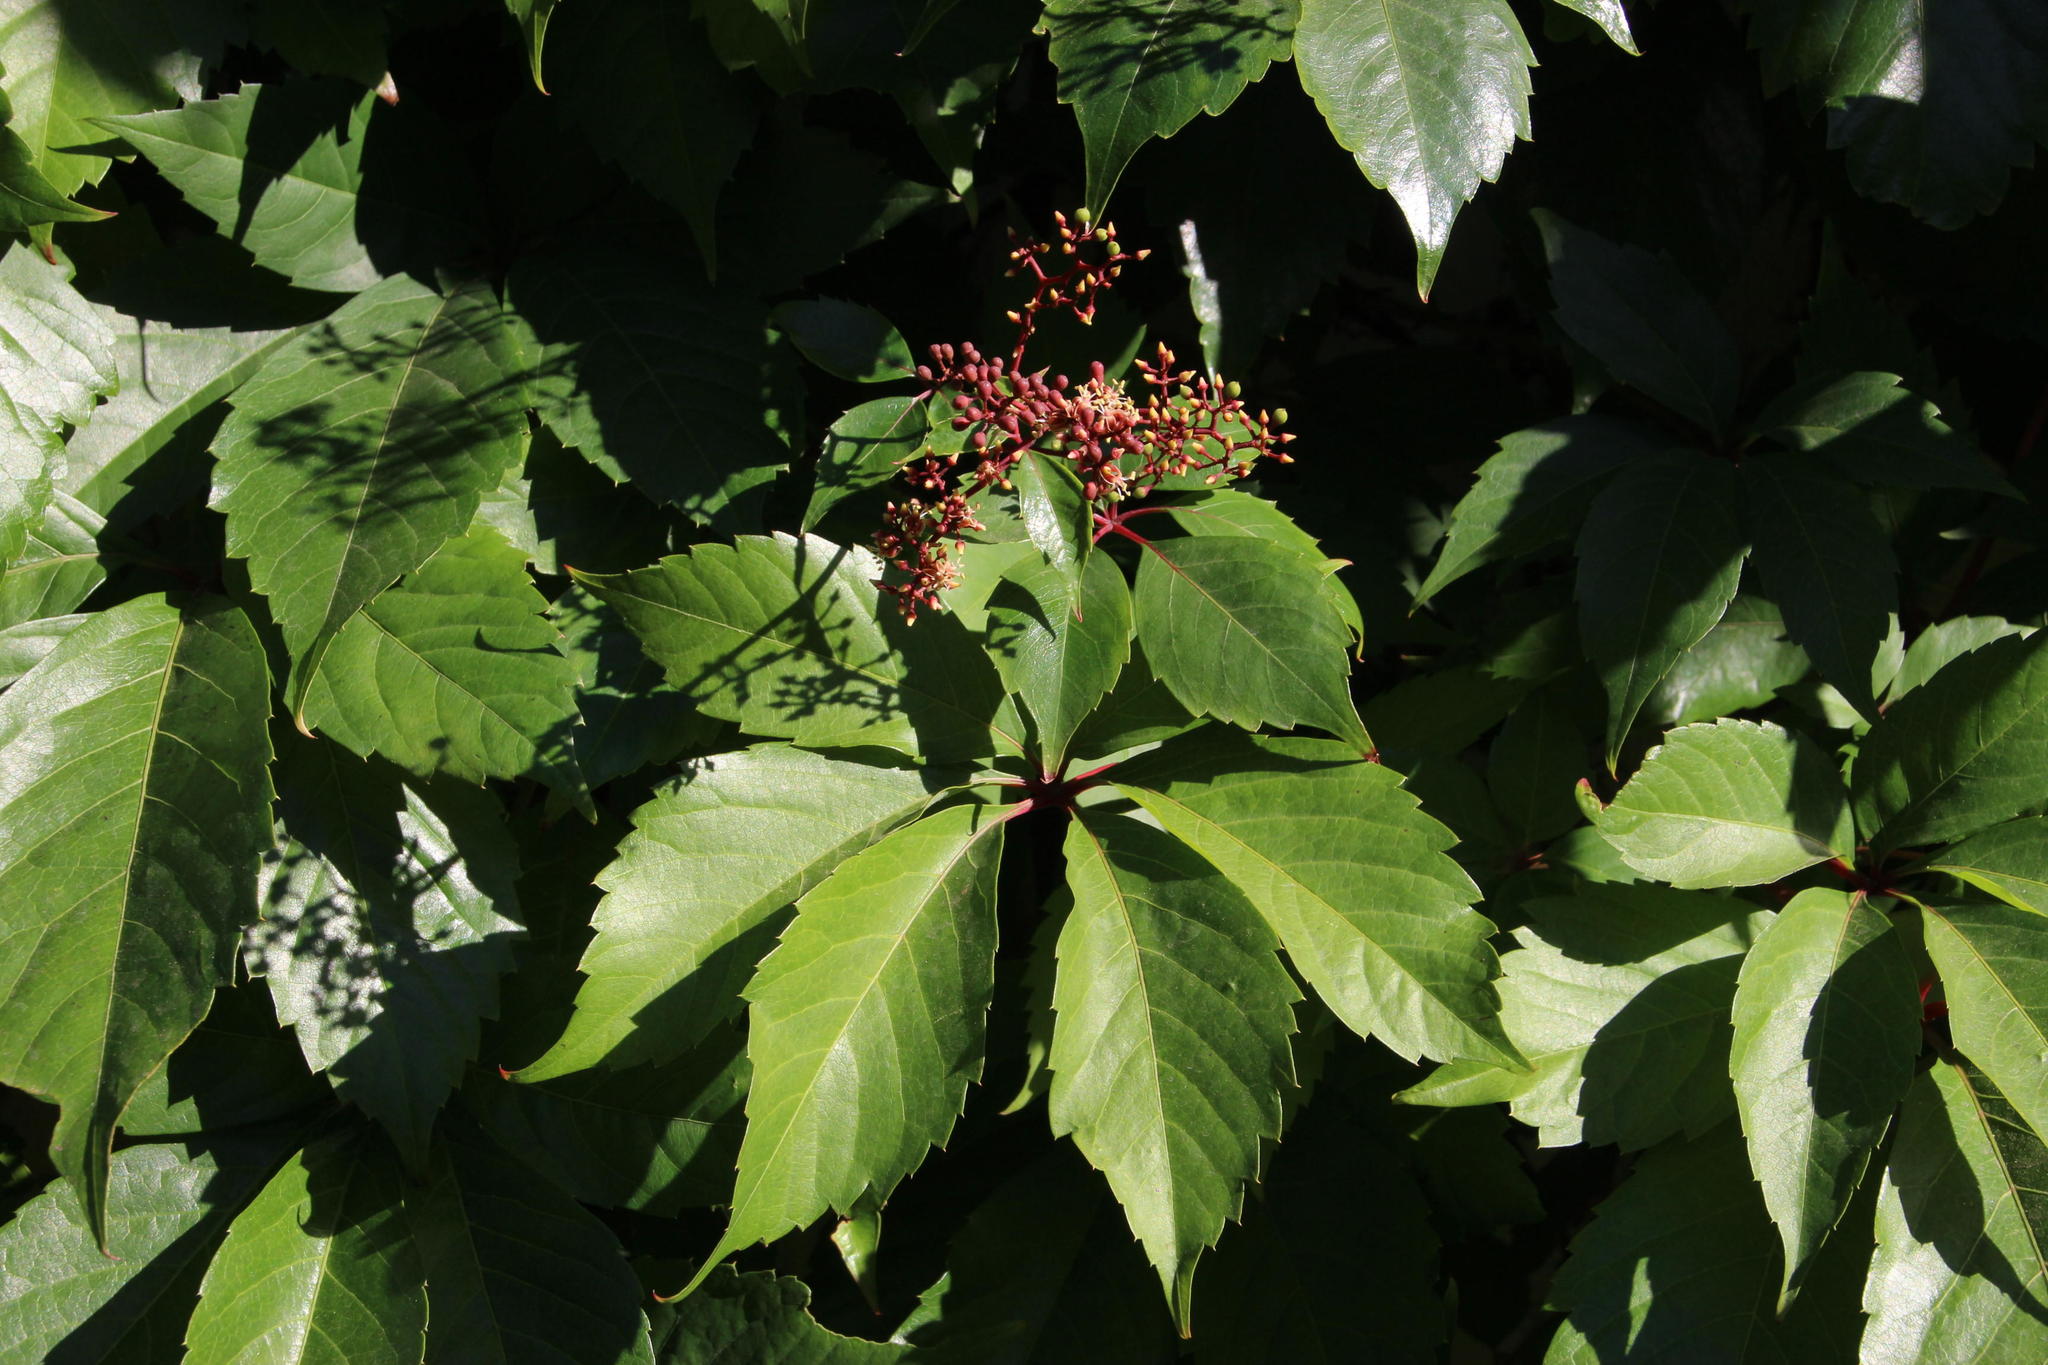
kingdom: Plantae
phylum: Tracheophyta
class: Magnoliopsida
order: Vitales
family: Vitaceae
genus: Parthenocissus
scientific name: Parthenocissus quinquefolia
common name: Virginia-creeper
